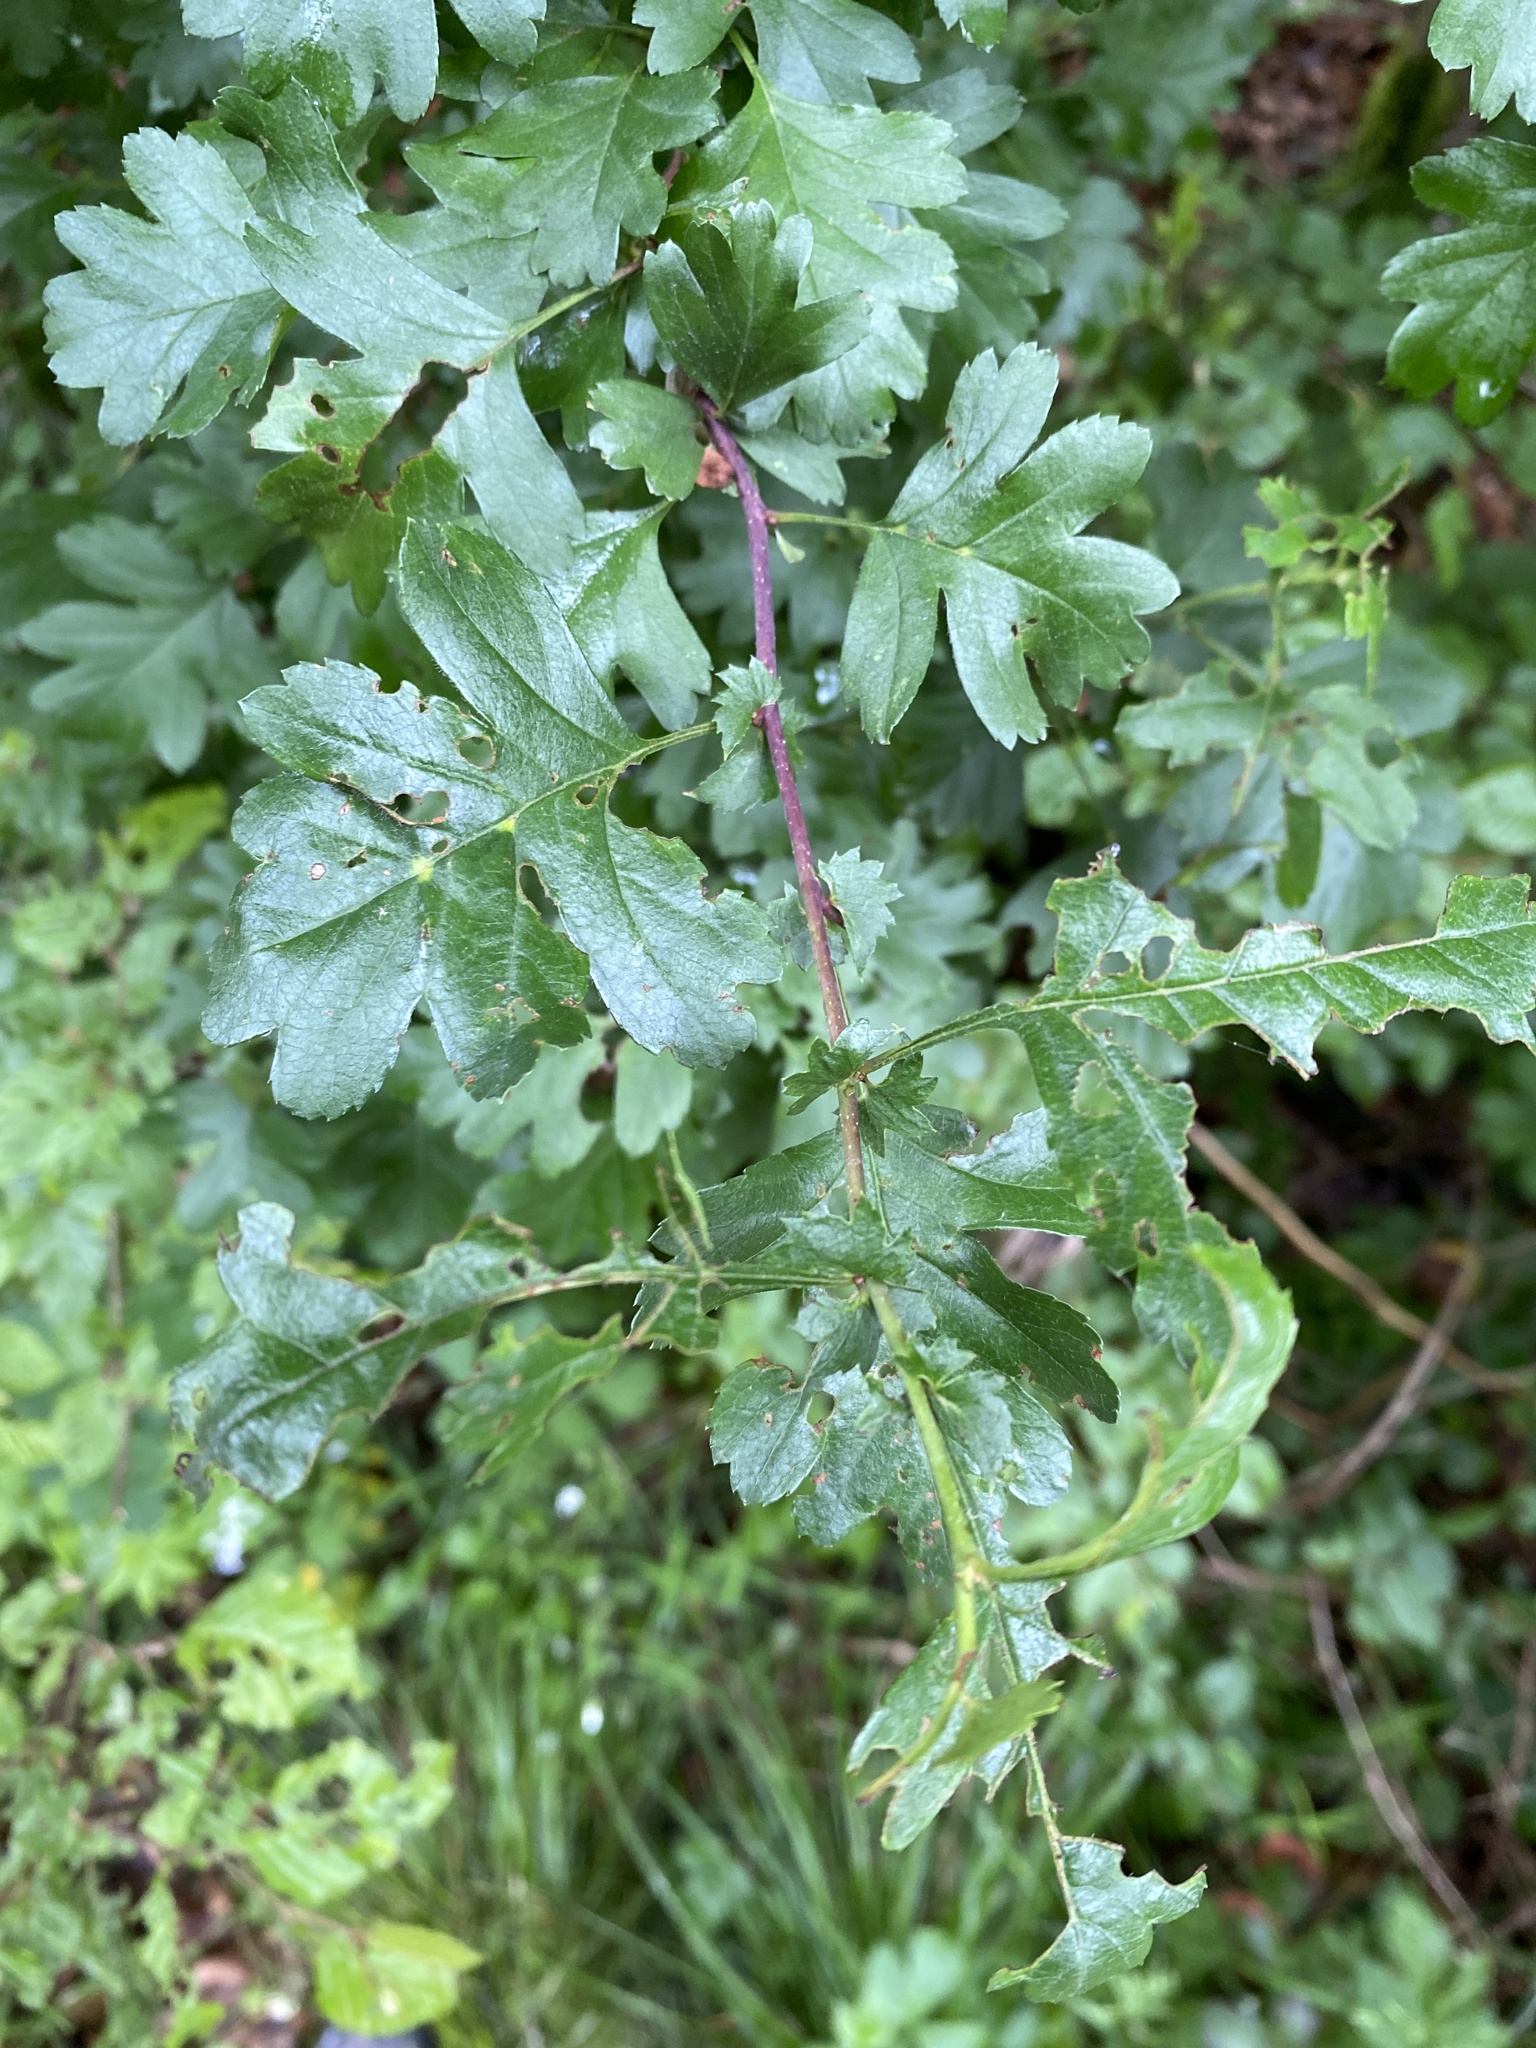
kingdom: Plantae
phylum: Tracheophyta
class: Magnoliopsida
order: Rosales
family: Rosaceae
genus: Crataegus
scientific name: Crataegus monogyna
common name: Hawthorn
